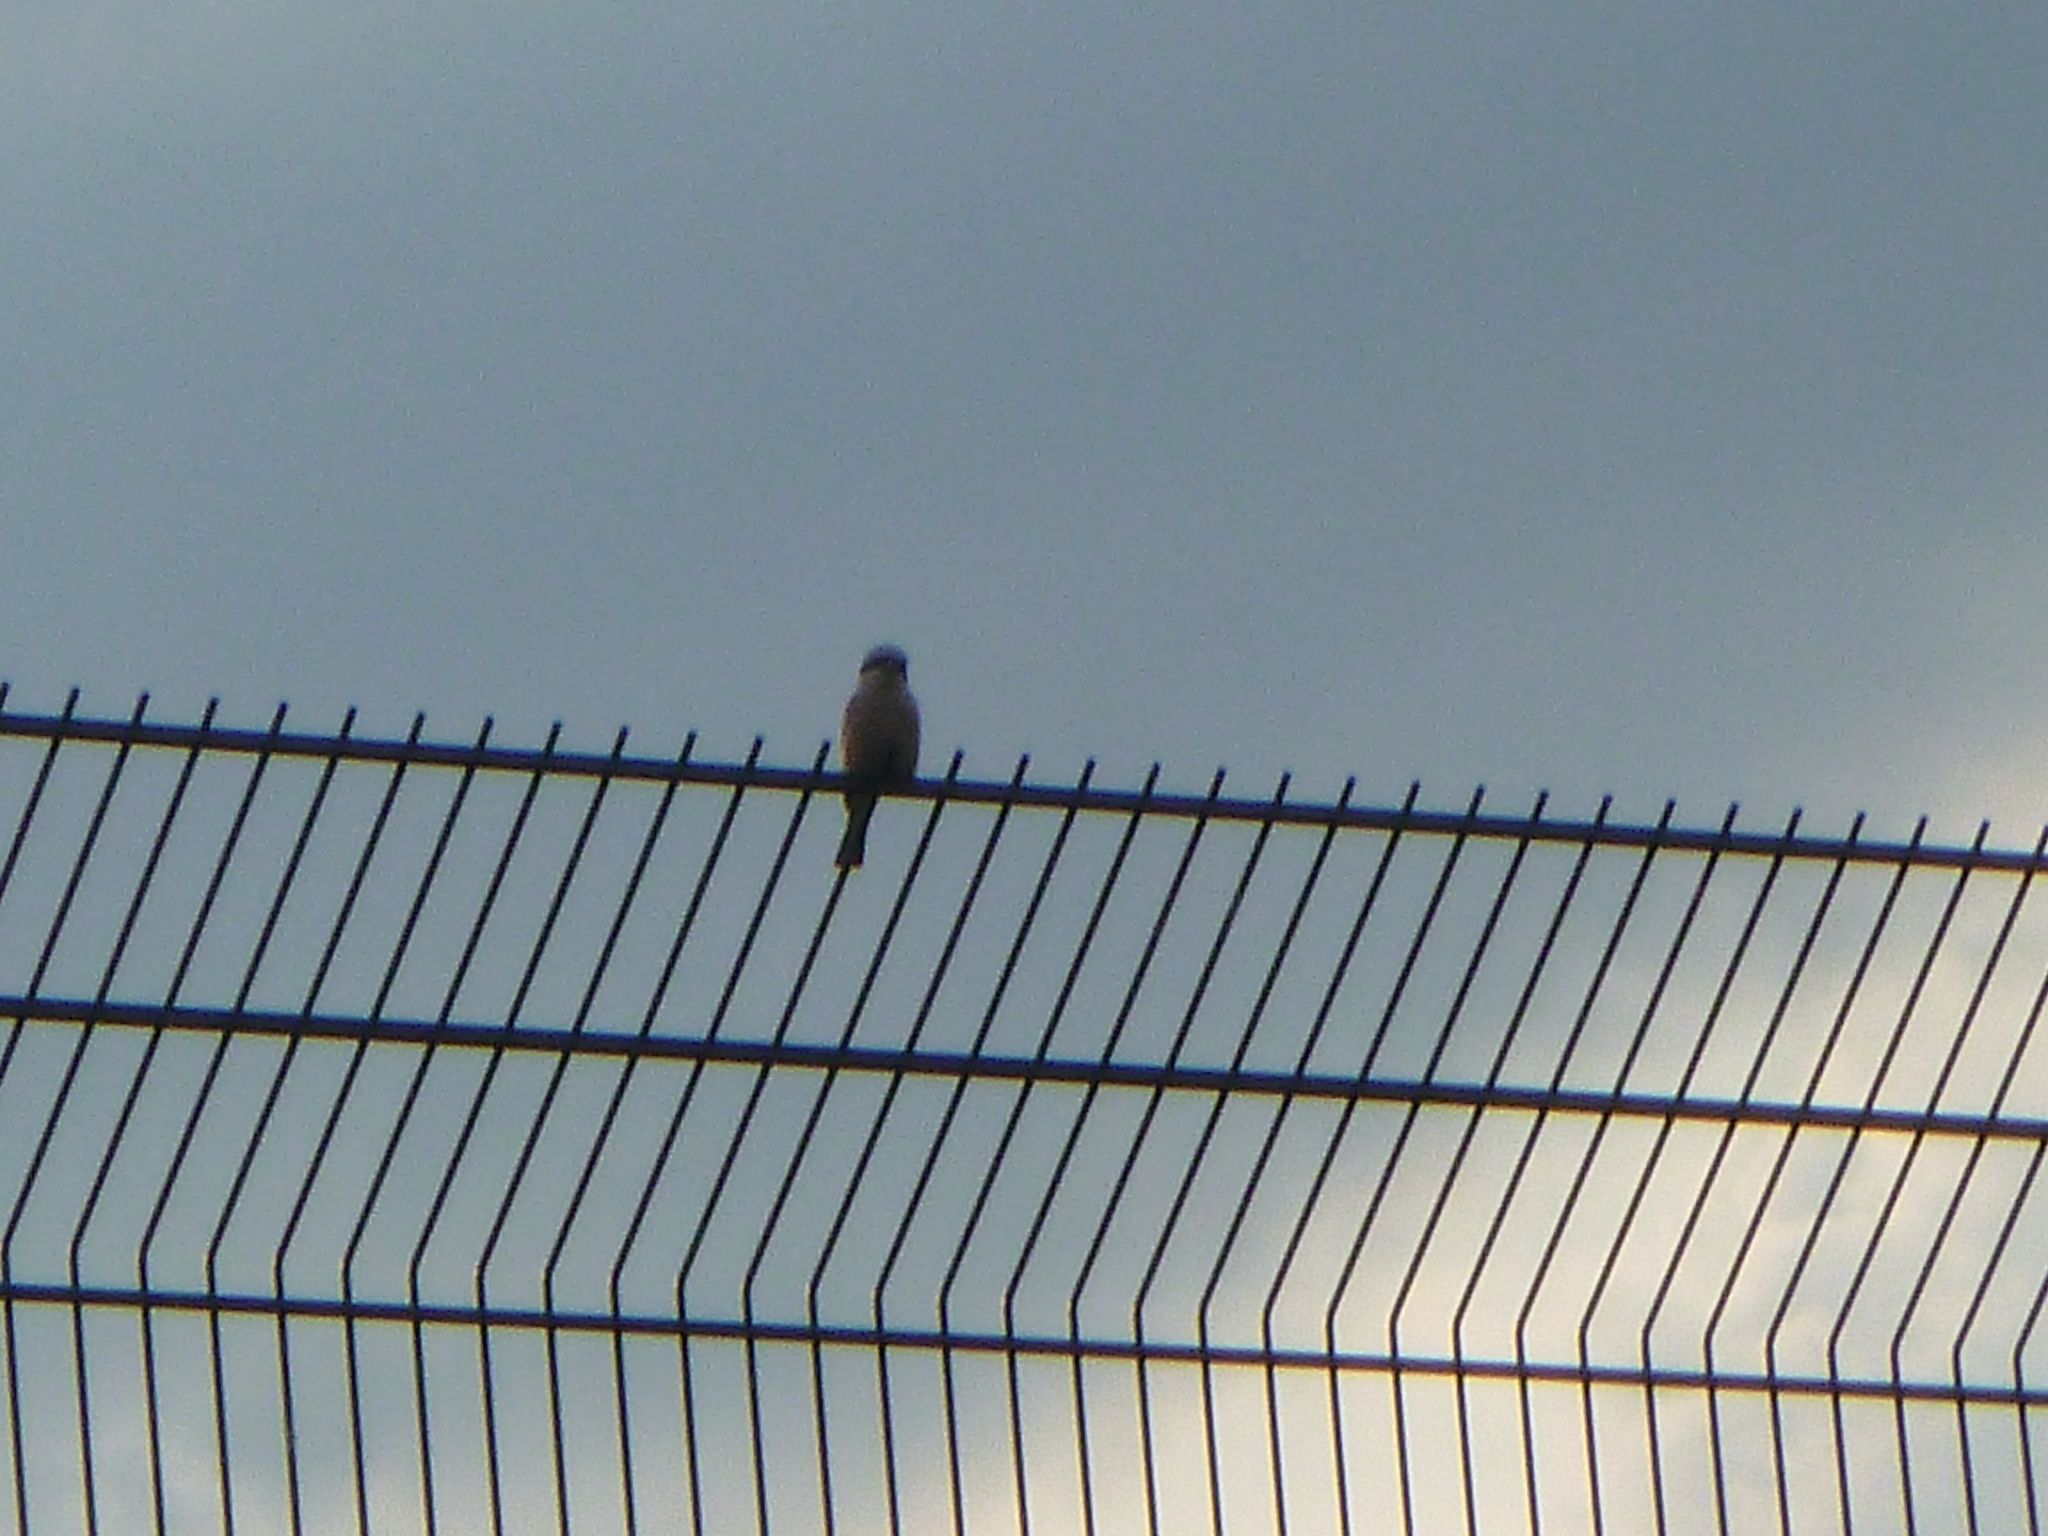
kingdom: Animalia
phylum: Chordata
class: Aves
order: Passeriformes
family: Laniidae
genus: Lanius
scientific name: Lanius collurio
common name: Red-backed shrike
